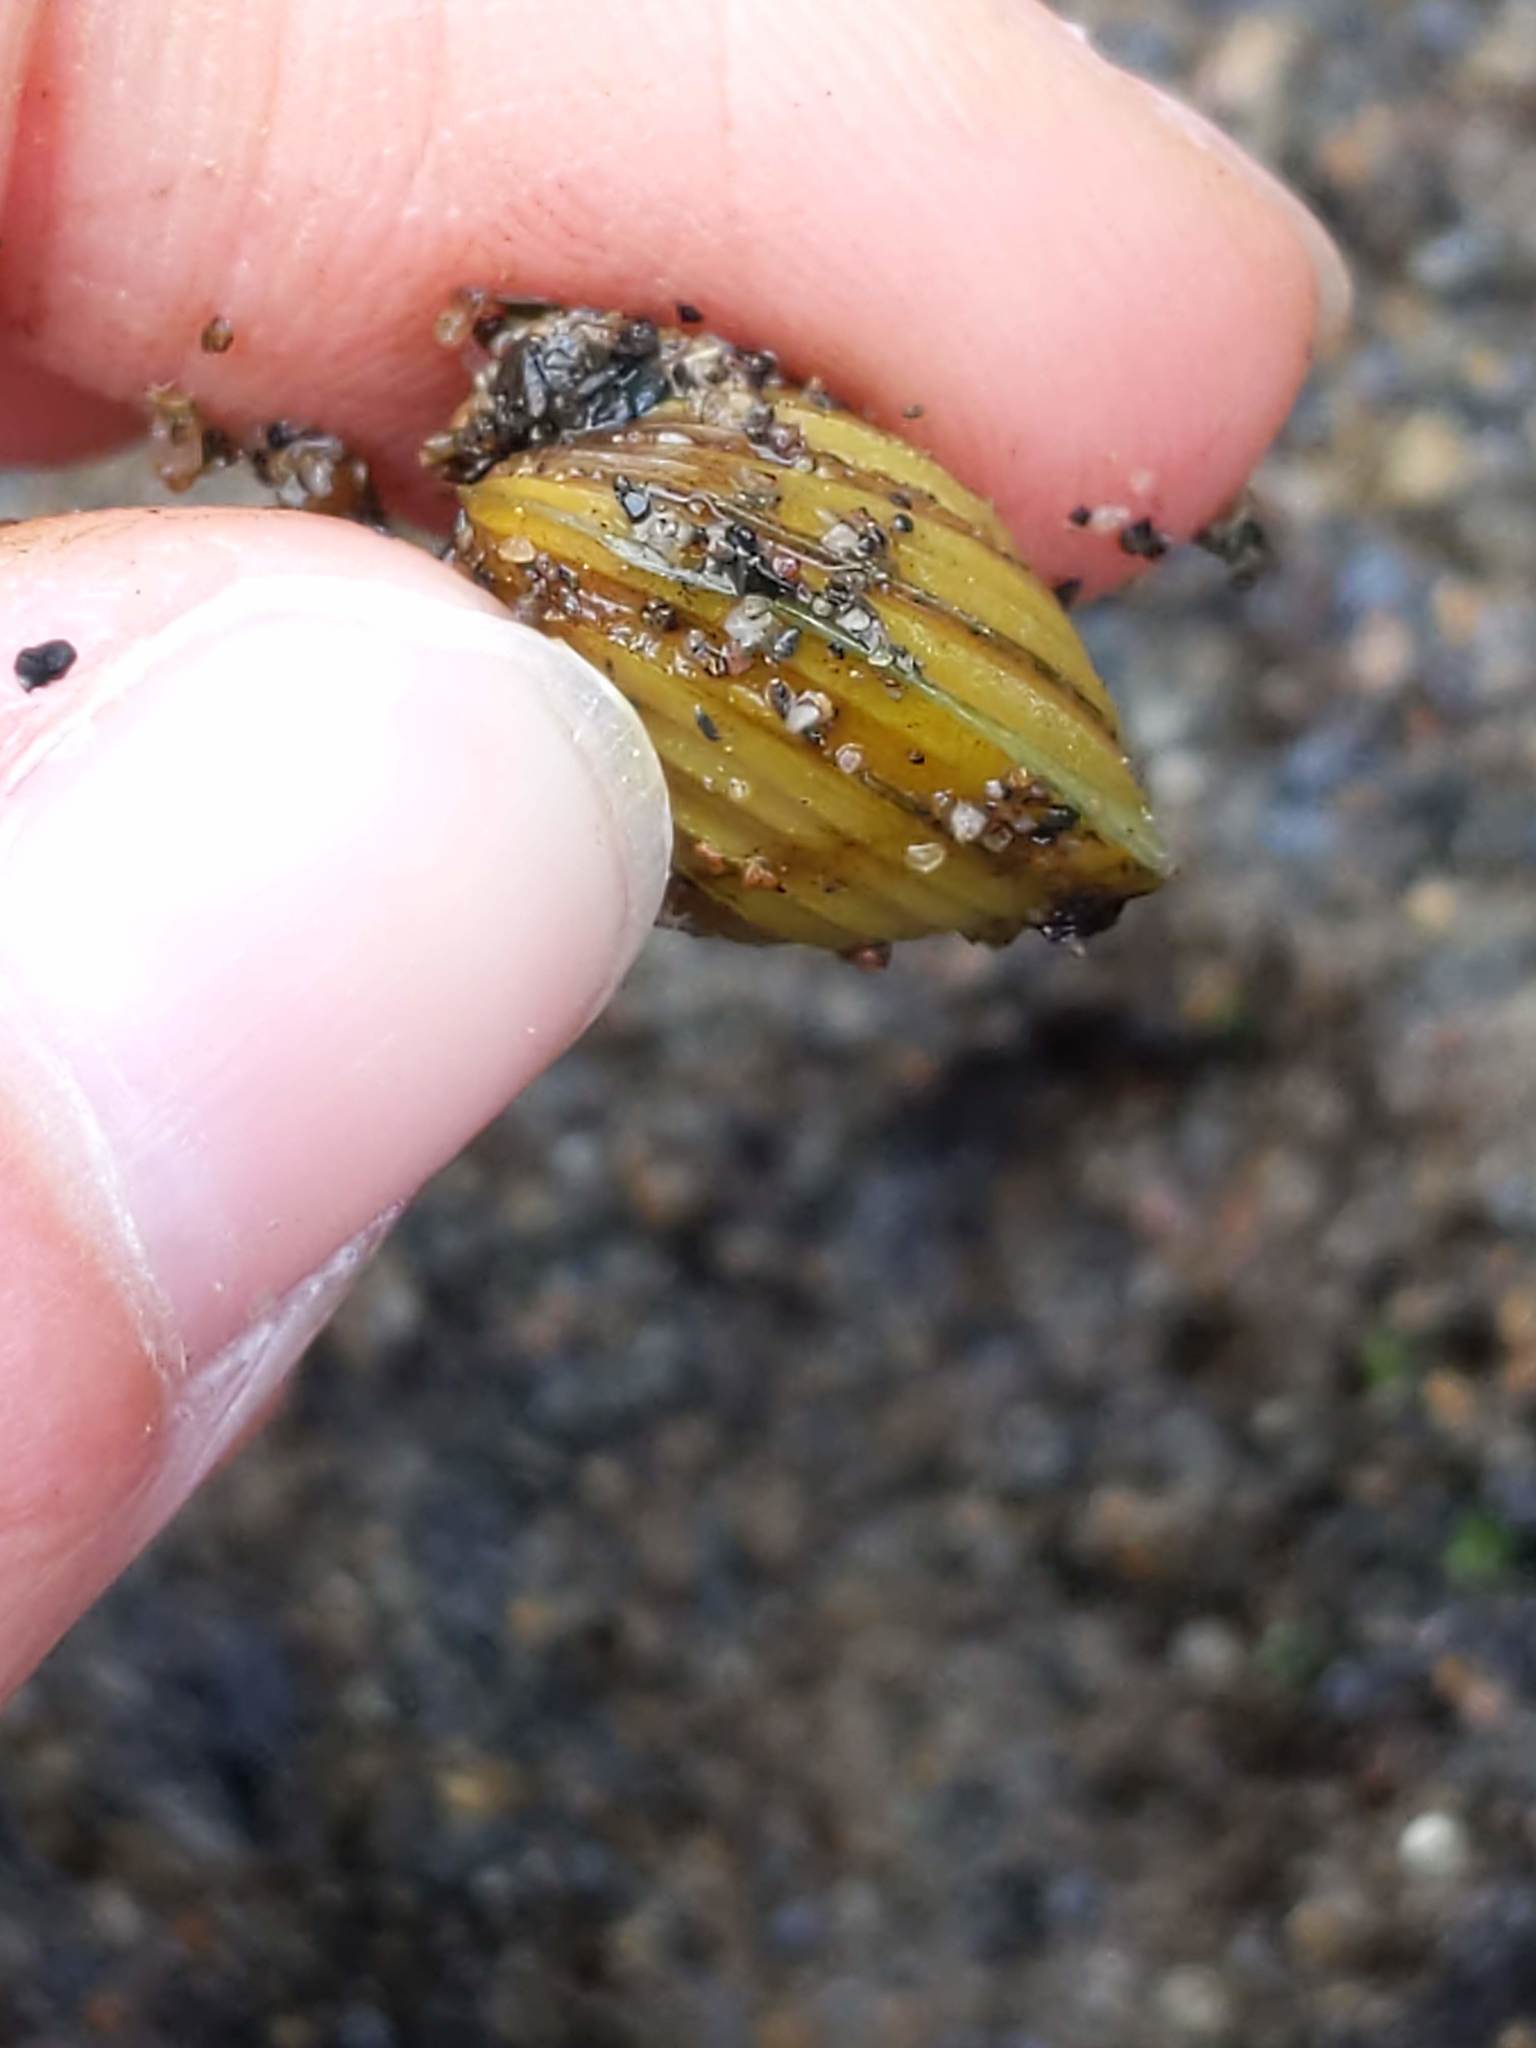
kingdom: Animalia
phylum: Mollusca
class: Bivalvia
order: Venerida
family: Cyrenidae
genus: Corbicula
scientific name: Corbicula fluminea
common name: Asian clam
